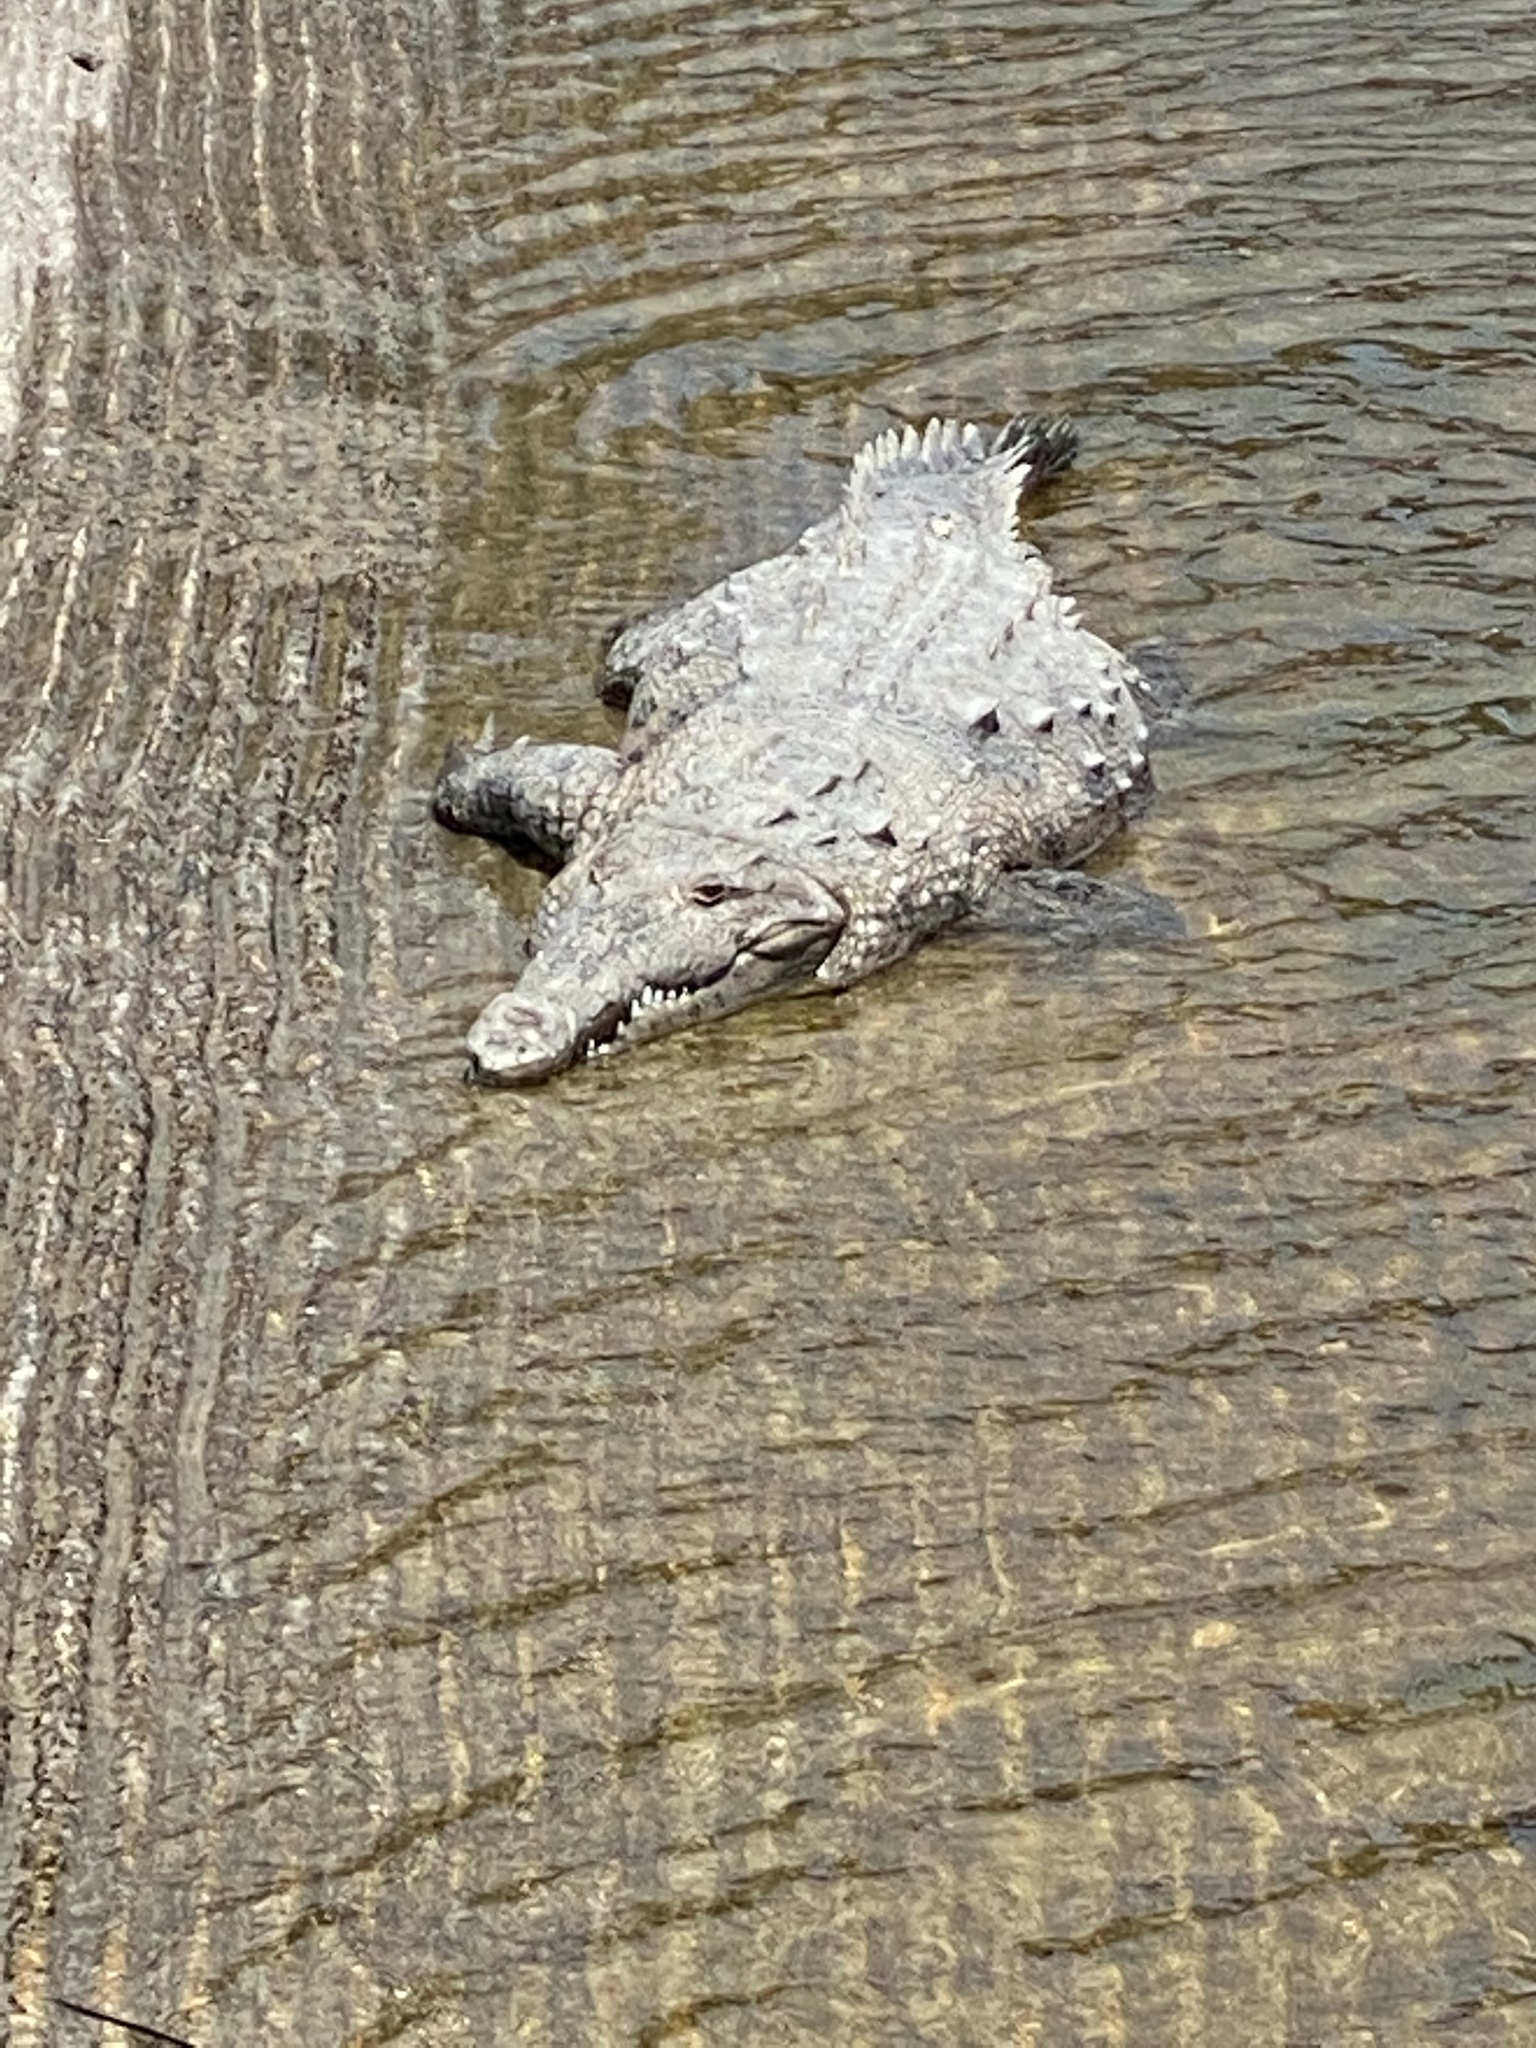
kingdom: Animalia
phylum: Chordata
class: Crocodylia
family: Crocodylidae
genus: Crocodylus
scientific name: Crocodylus acutus
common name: American crocodile
